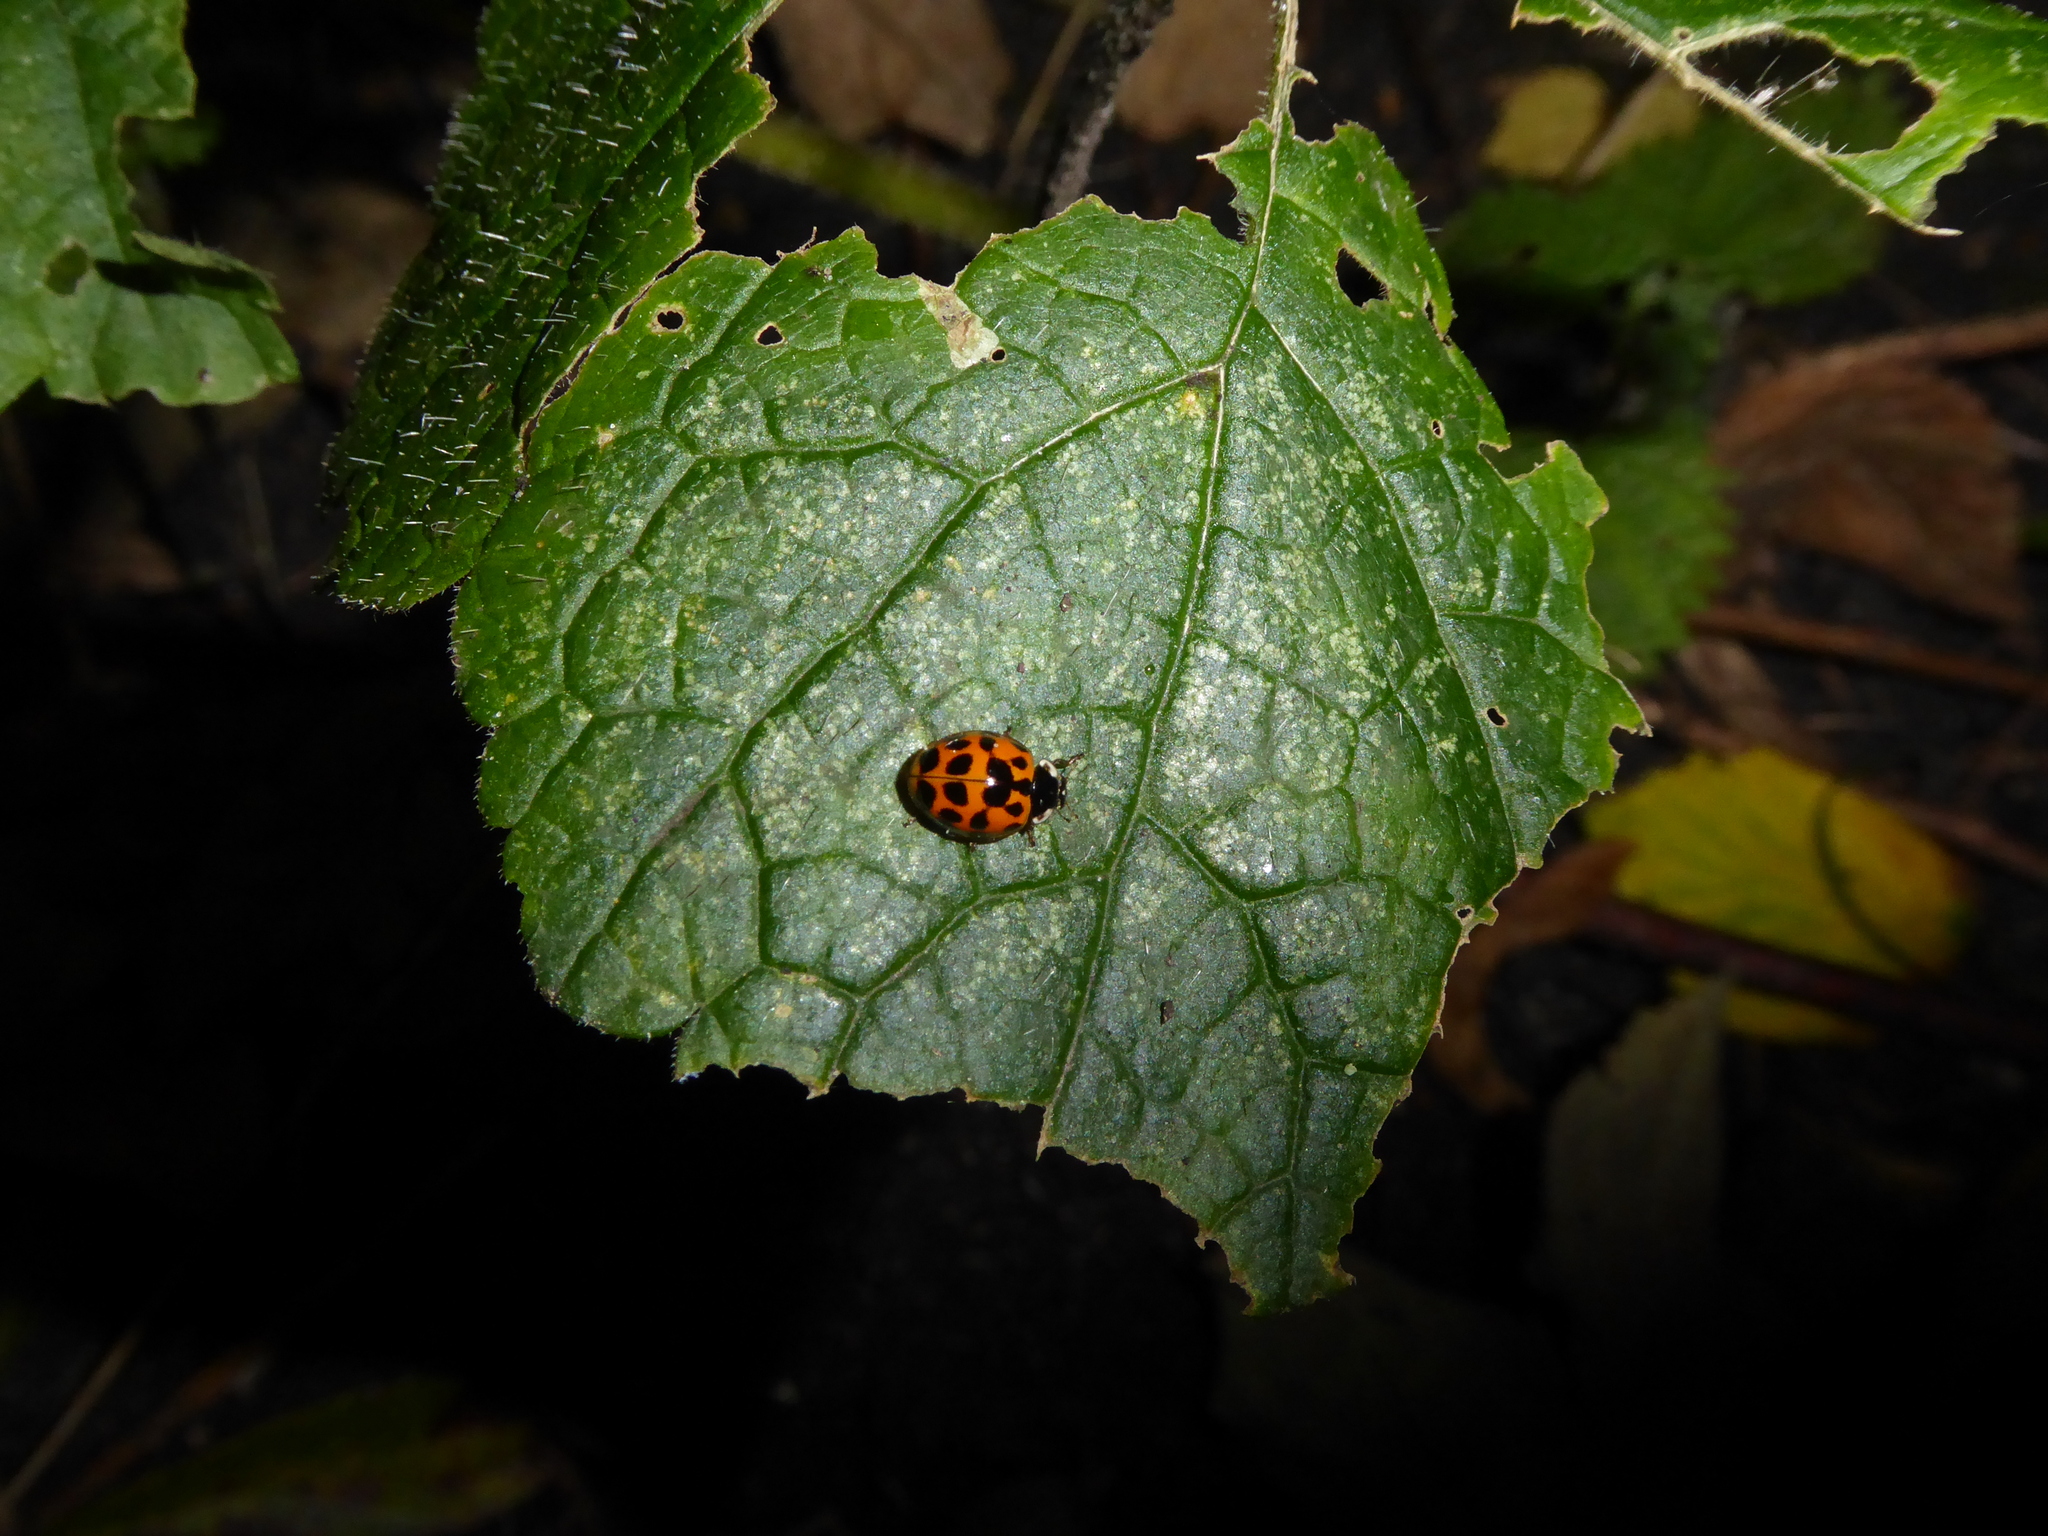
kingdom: Animalia
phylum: Arthropoda
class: Insecta
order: Coleoptera
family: Coccinellidae
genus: Harmonia
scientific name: Harmonia axyridis
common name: Harlequin ladybird
